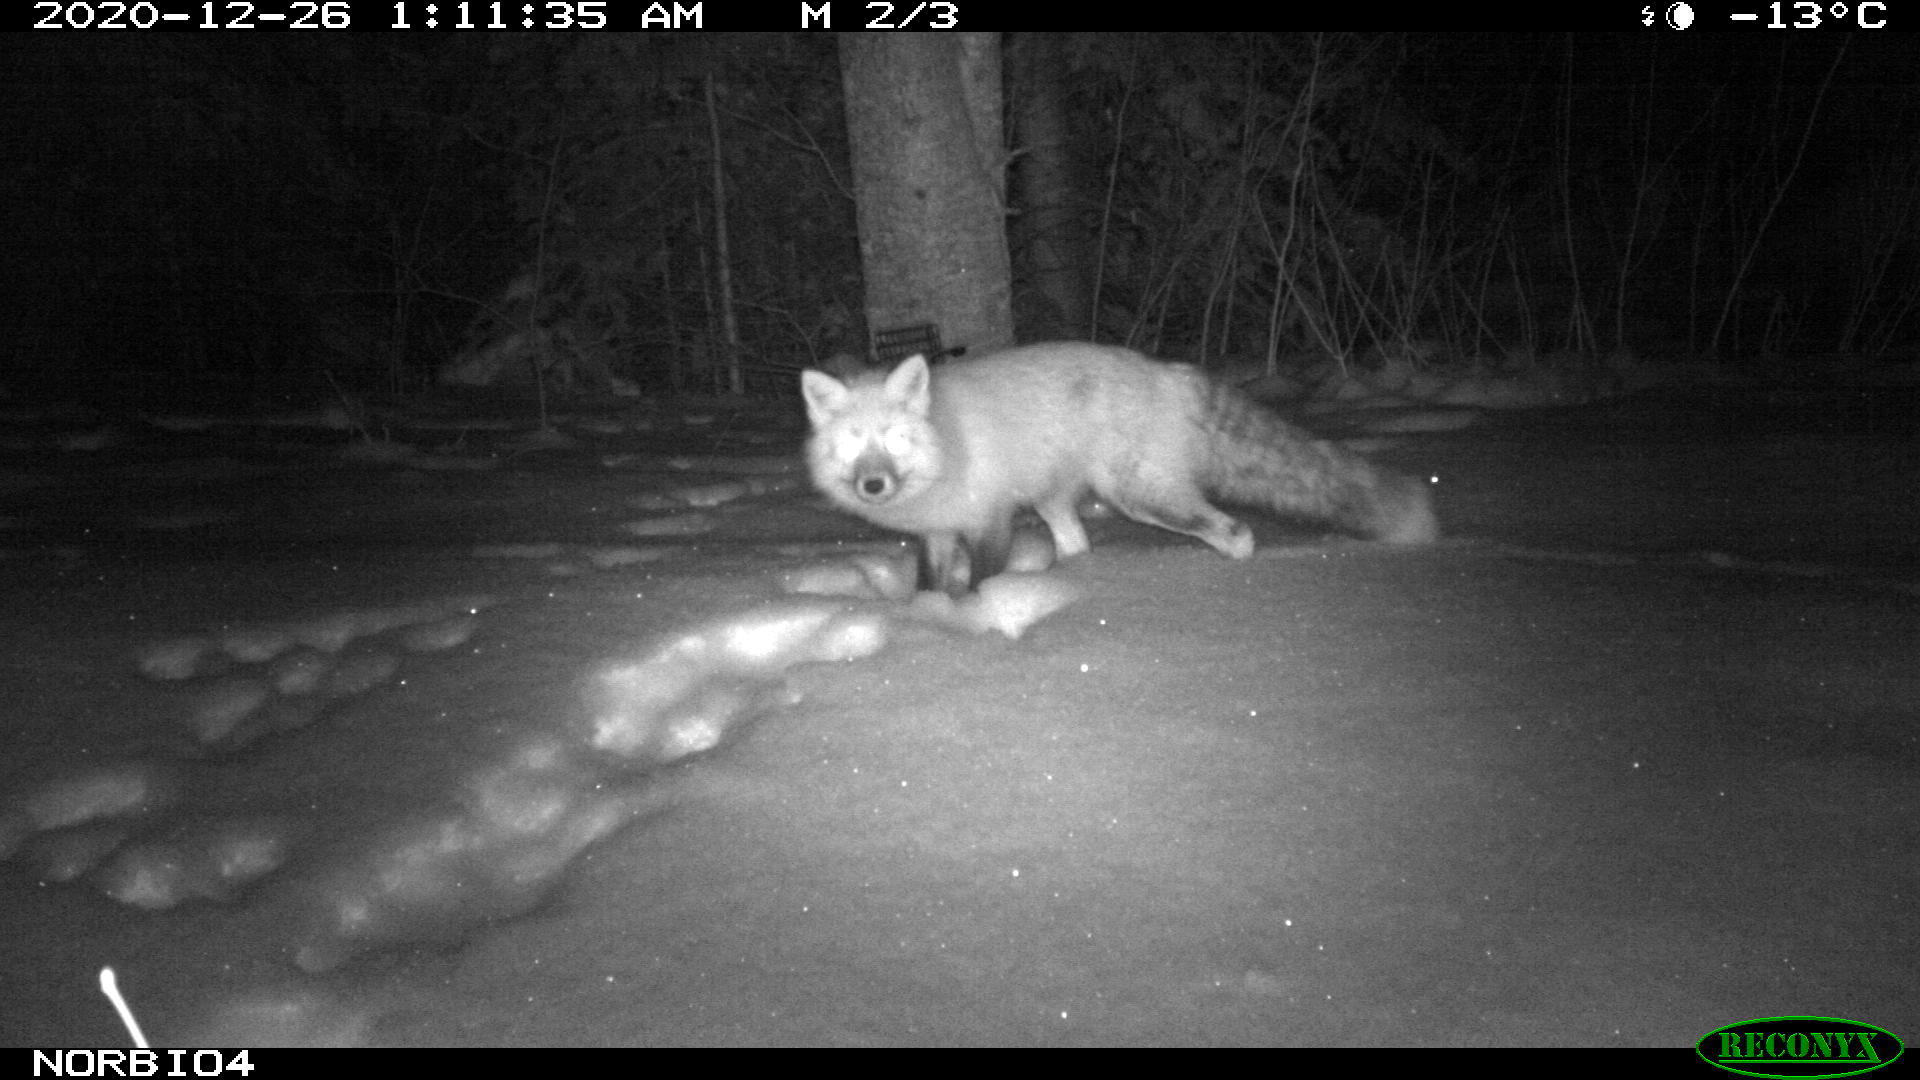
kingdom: Animalia
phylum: Chordata
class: Mammalia
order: Carnivora
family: Canidae
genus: Vulpes
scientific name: Vulpes vulpes
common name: Red fox
